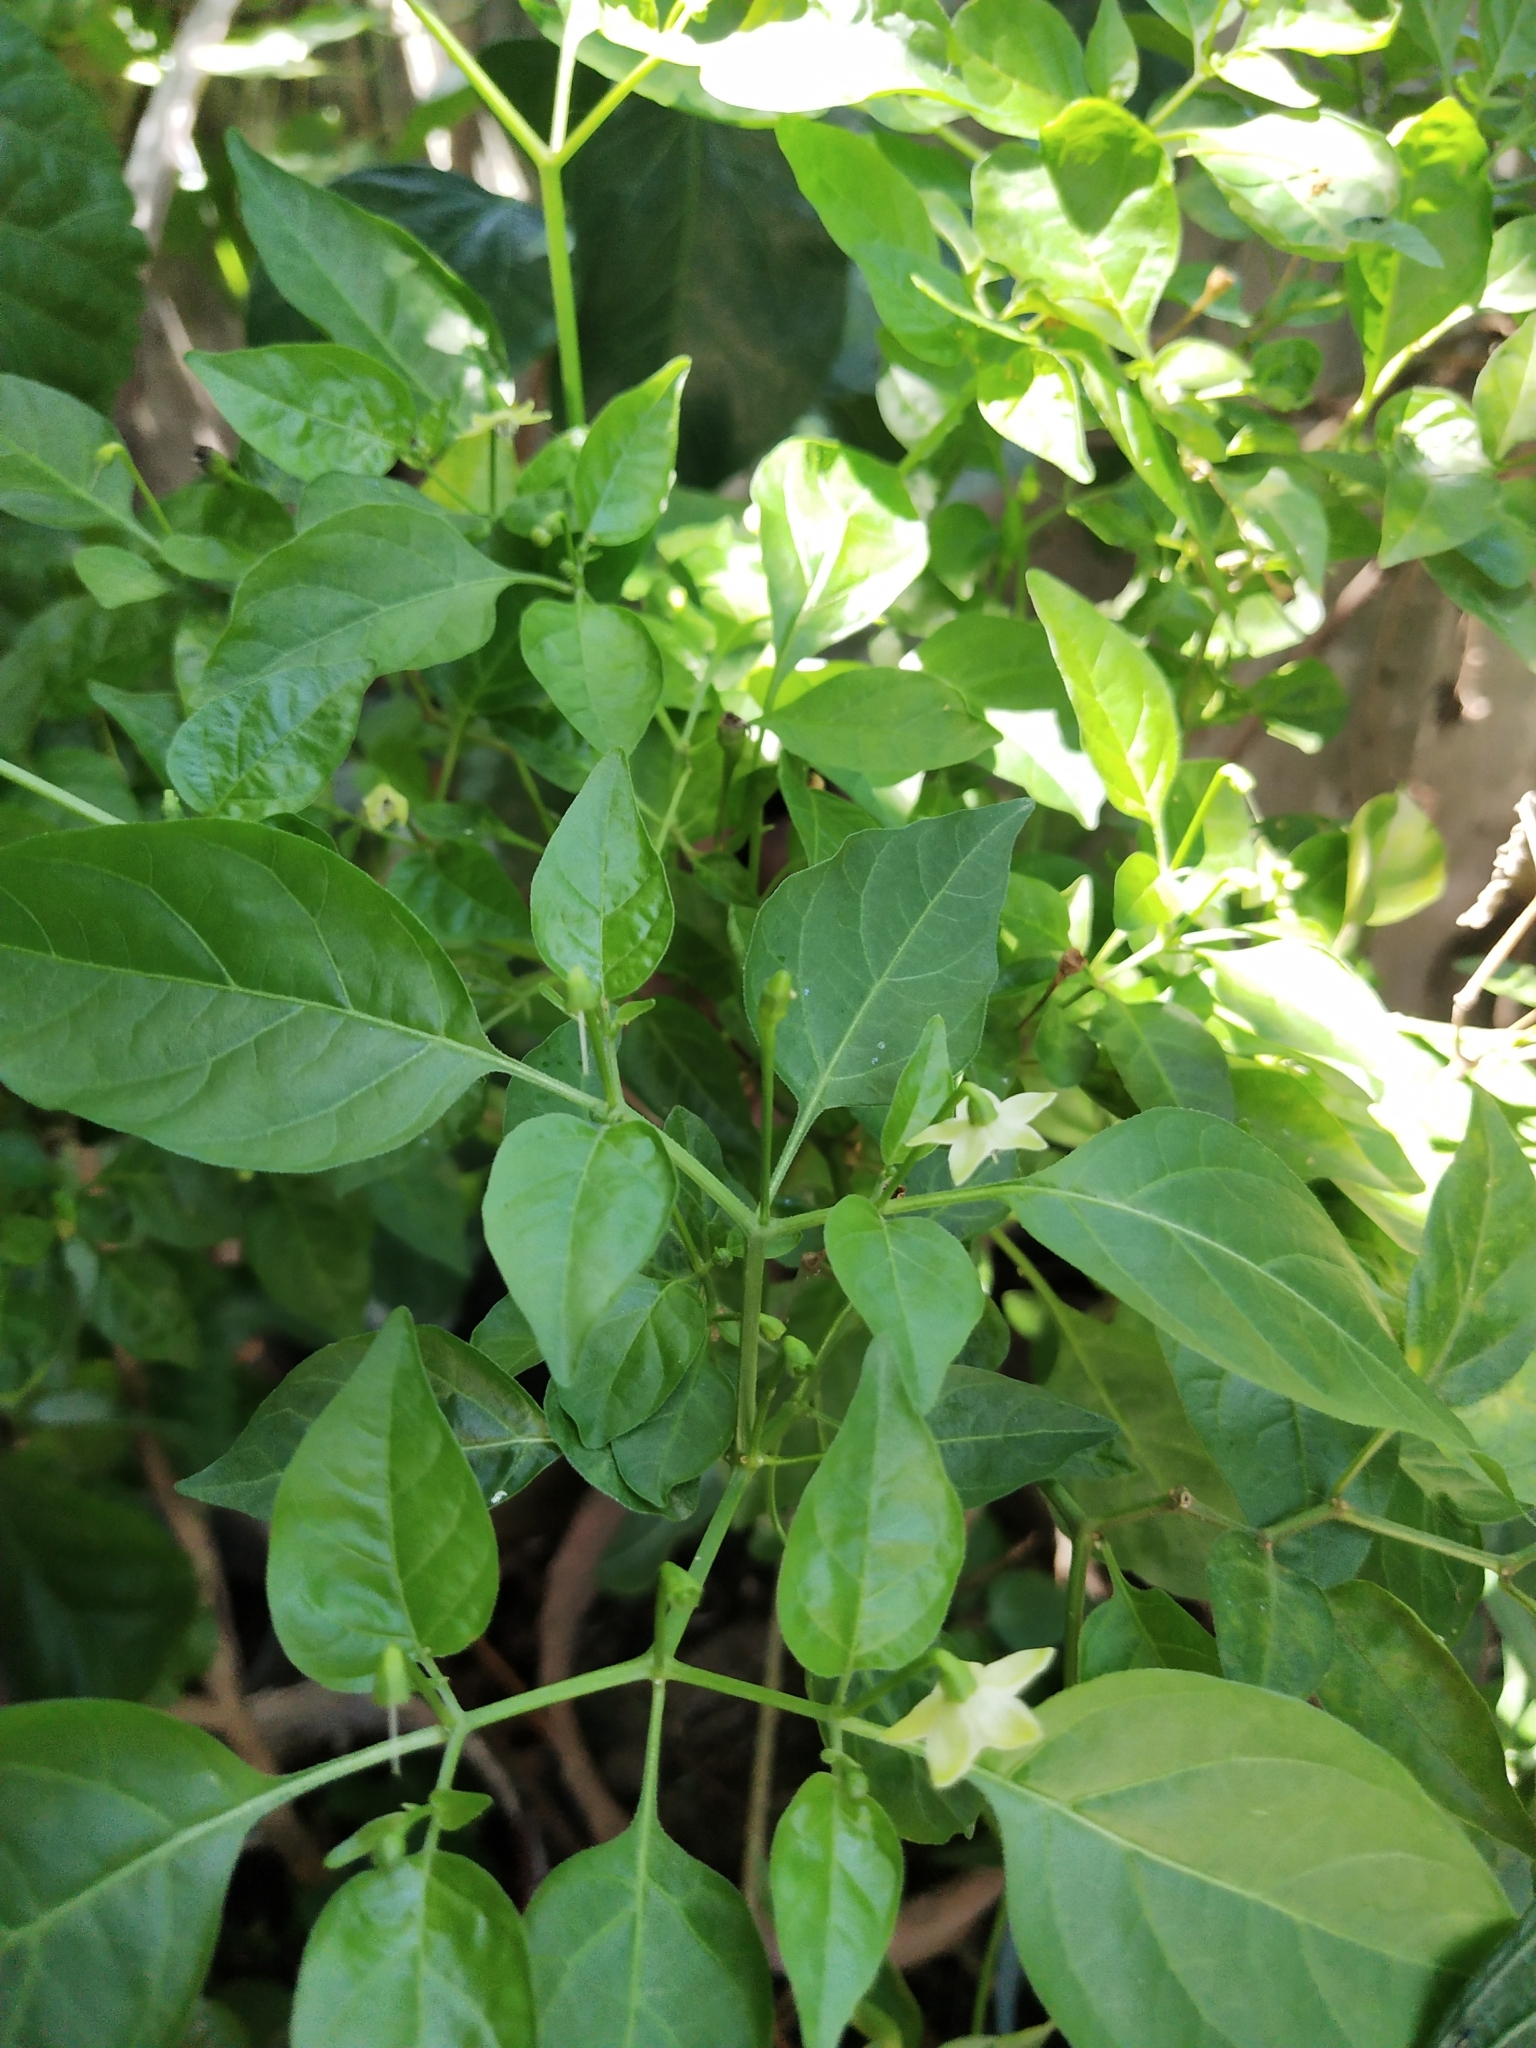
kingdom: Plantae
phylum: Tracheophyta
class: Magnoliopsida
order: Solanales
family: Solanaceae
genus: Capsicum
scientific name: Capsicum annuum
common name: Sweet pepper
